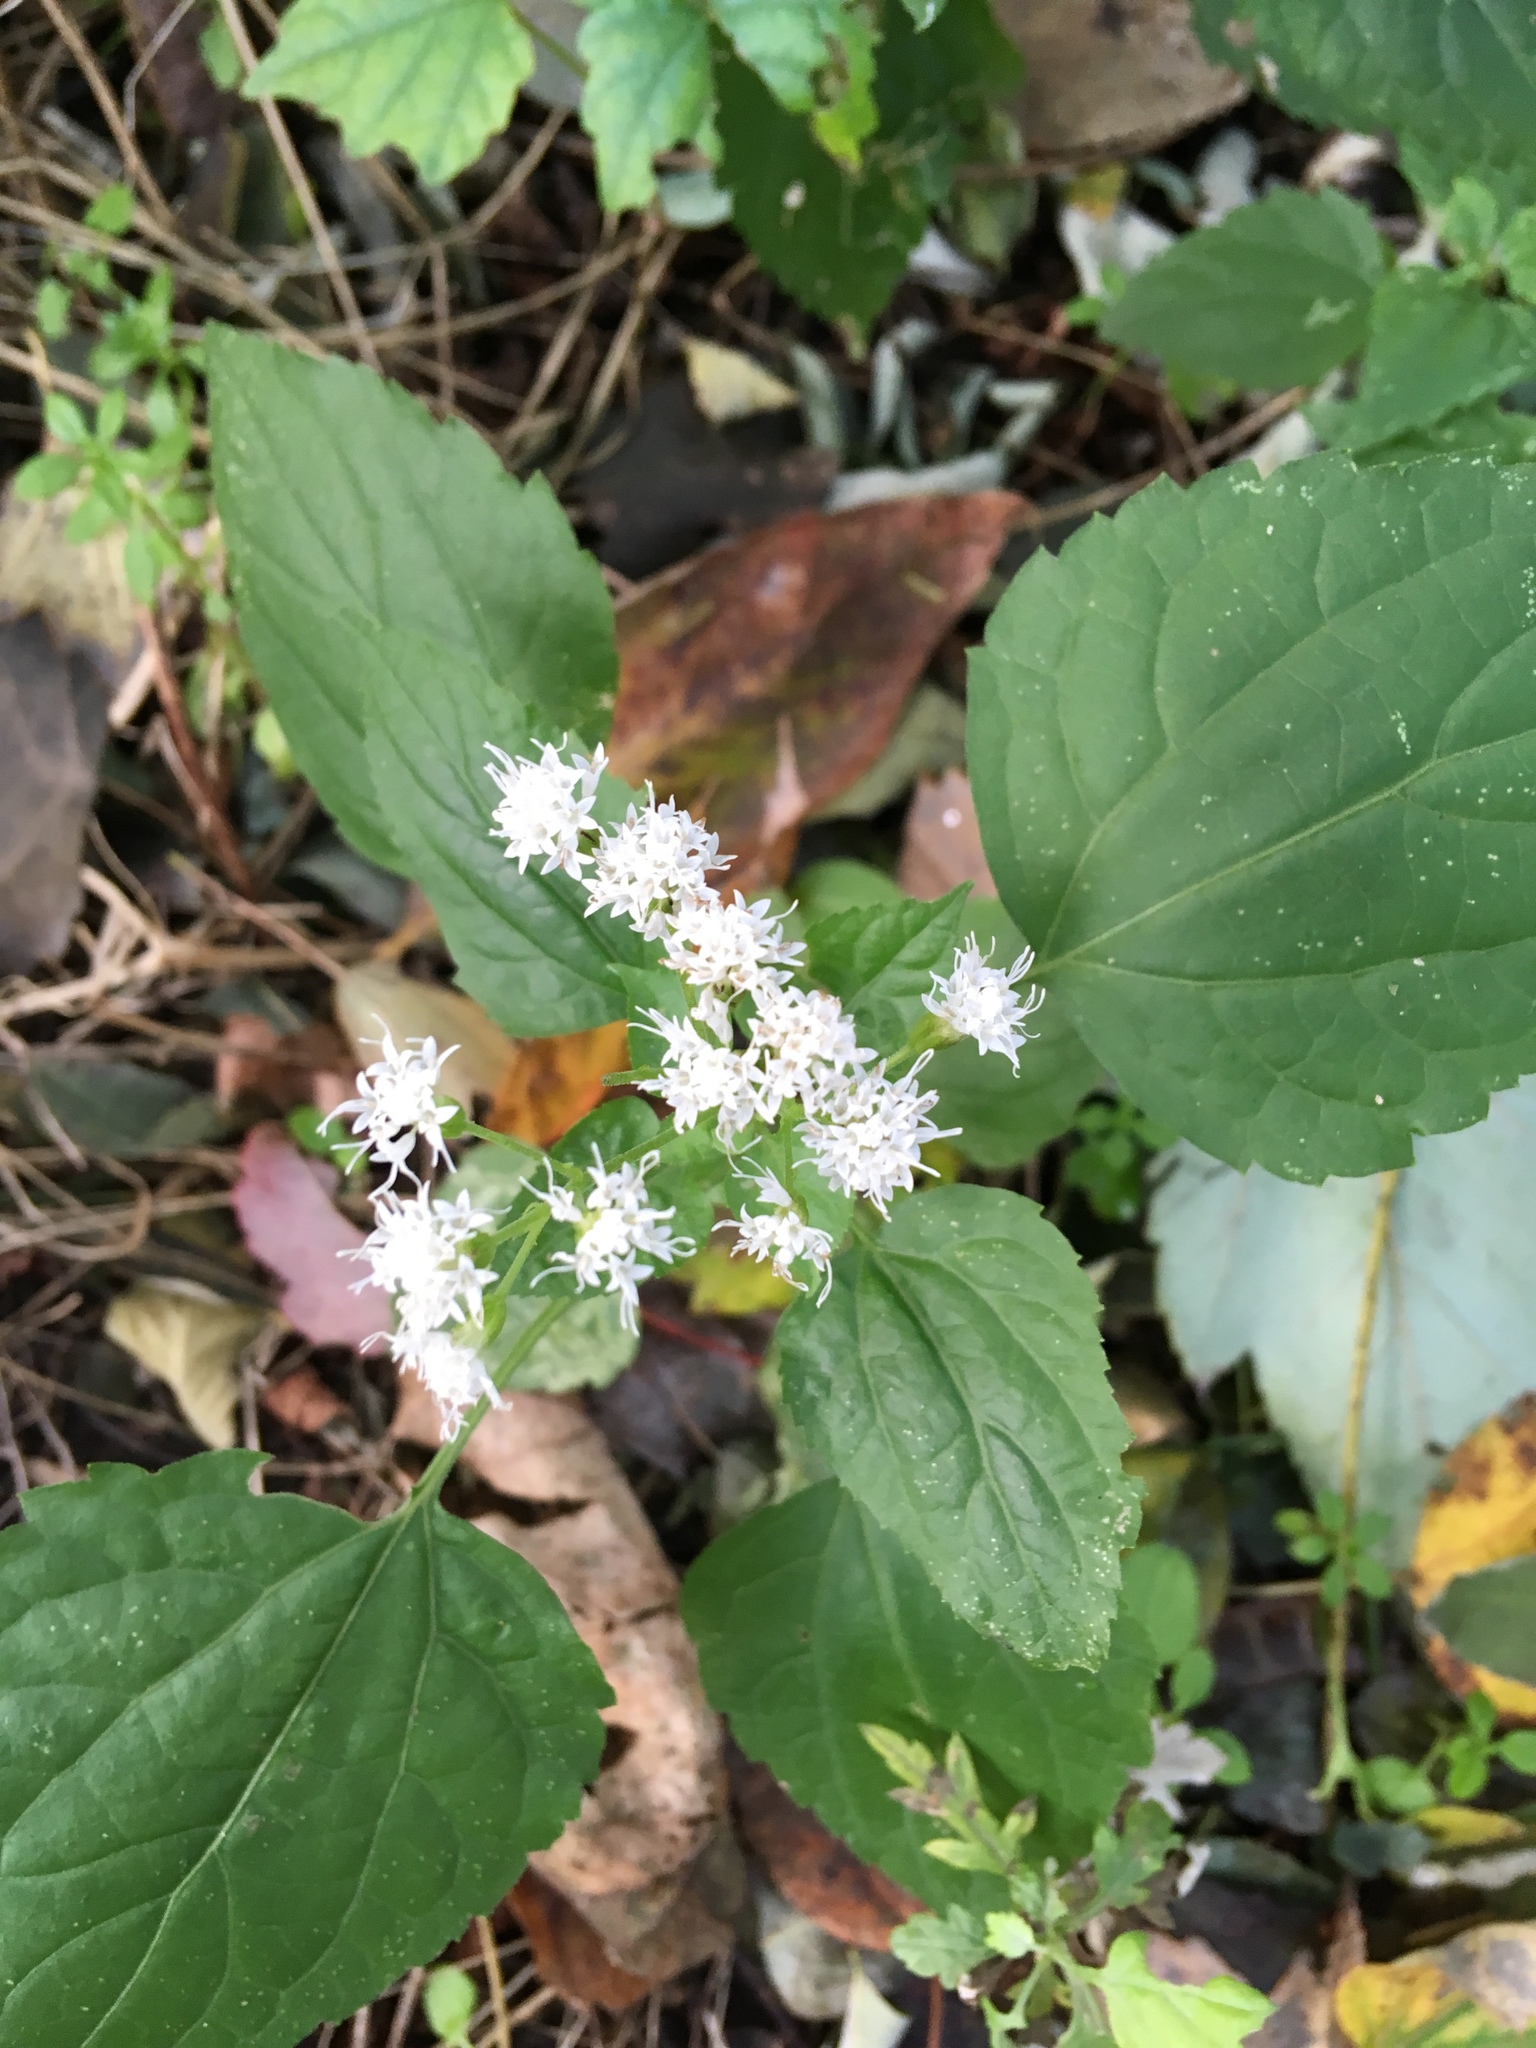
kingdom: Plantae
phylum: Tracheophyta
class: Magnoliopsida
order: Asterales
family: Asteraceae
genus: Ageratina
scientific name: Ageratina altissima
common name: White snakeroot
